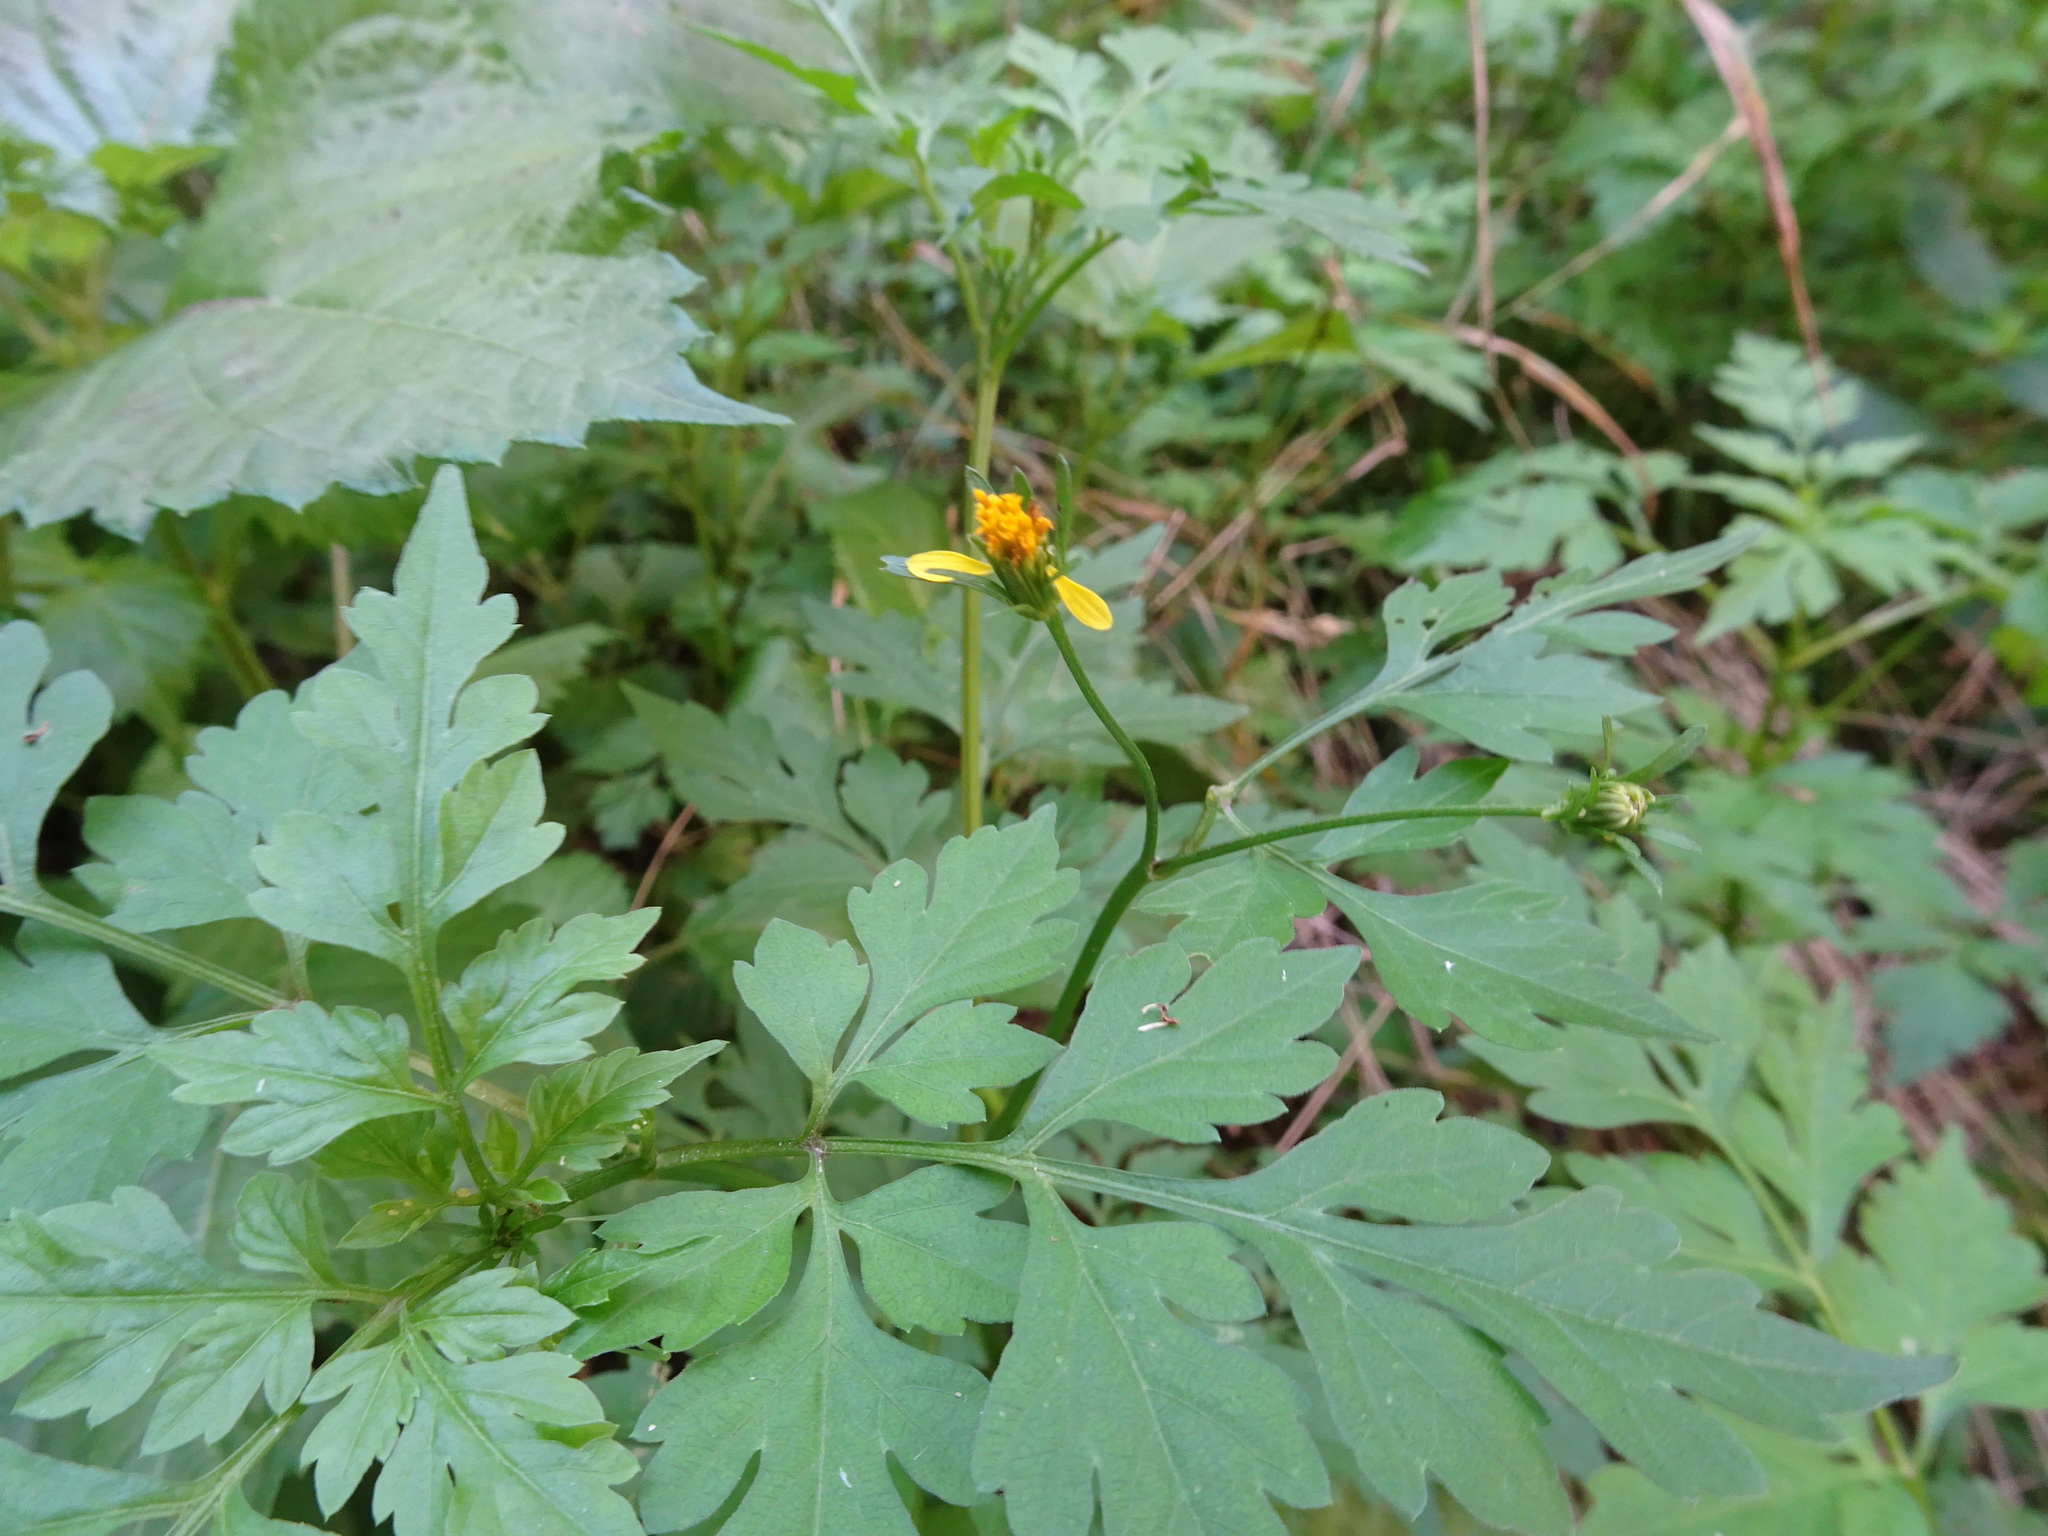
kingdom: Plantae
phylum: Tracheophyta
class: Magnoliopsida
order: Asterales
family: Asteraceae
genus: Bidens
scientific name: Bidens bipinnata
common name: Spanish-needles
